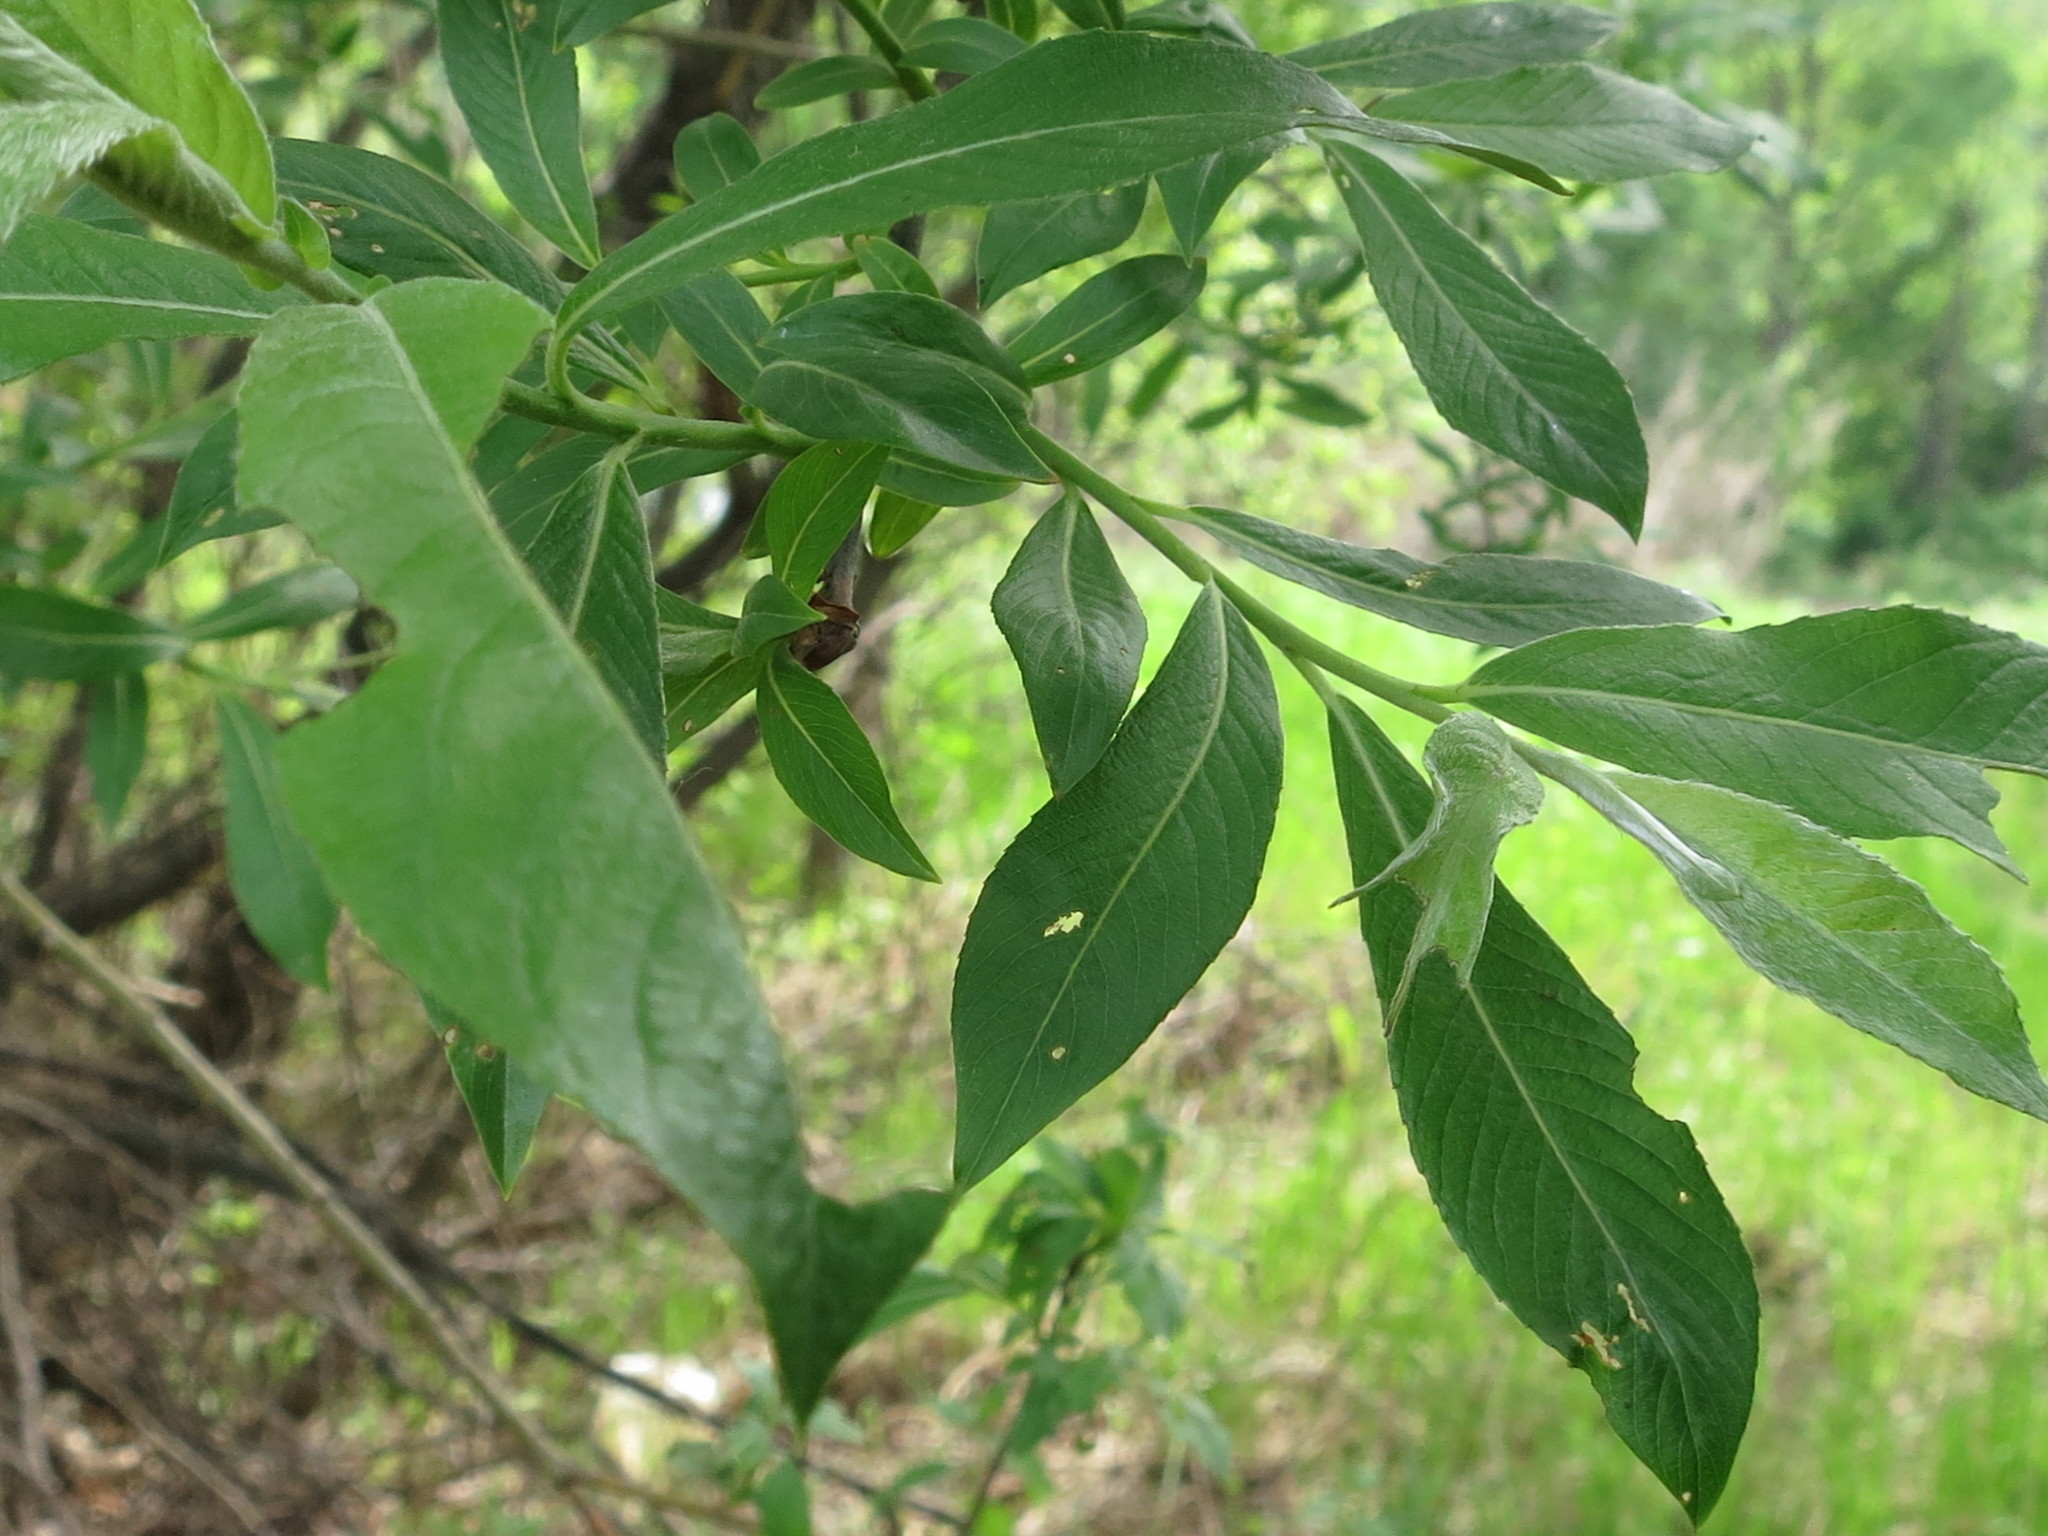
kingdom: Plantae
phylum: Tracheophyta
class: Magnoliopsida
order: Malpighiales
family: Salicaceae
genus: Salix
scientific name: Salix gracilistyla
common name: Rose-gold pussy willow
